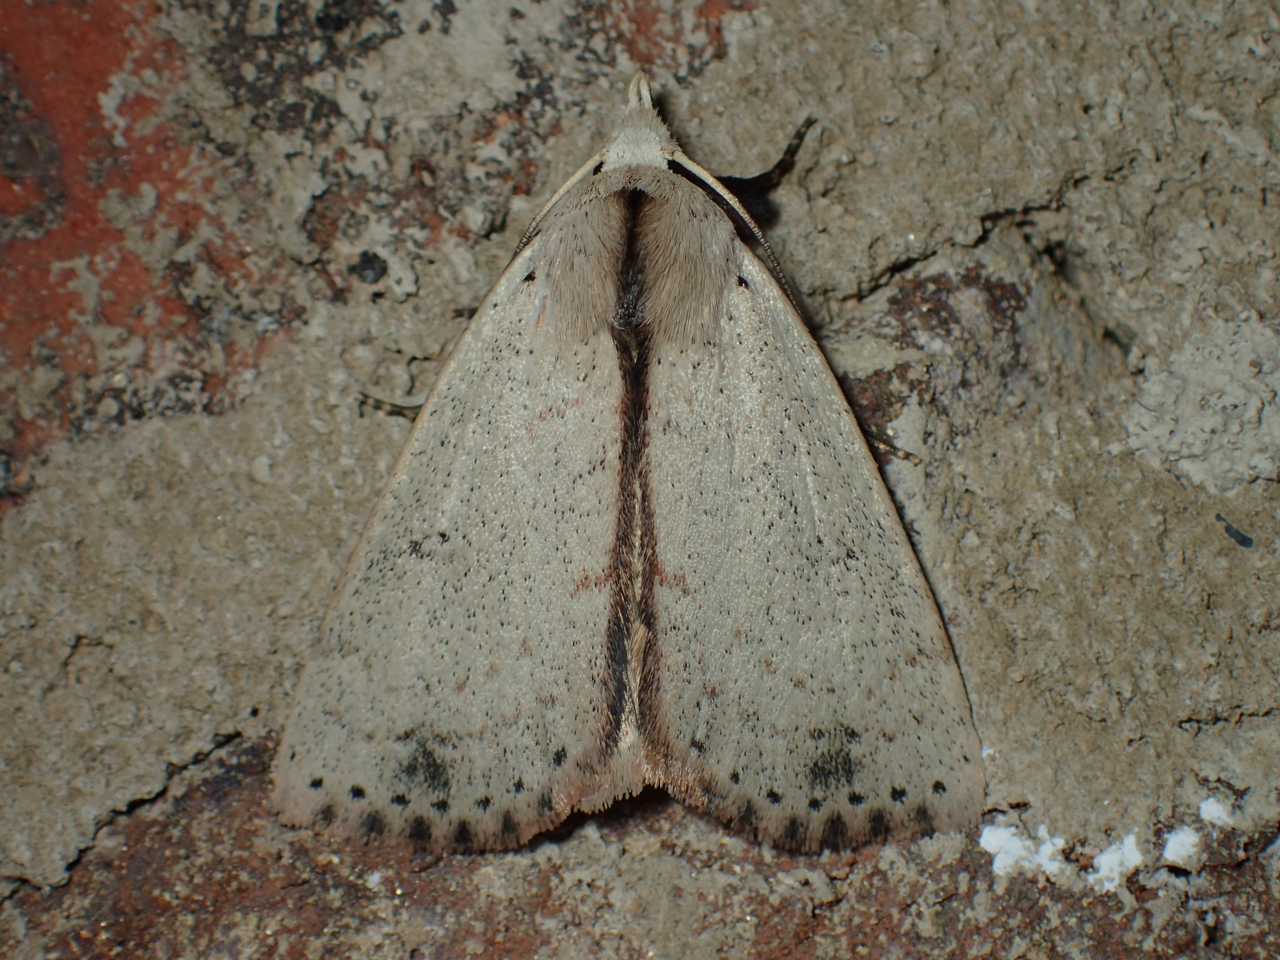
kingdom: Animalia
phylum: Arthropoda
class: Insecta
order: Lepidoptera
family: Erebidae
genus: Scolecocampa
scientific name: Scolecocampa liburna
